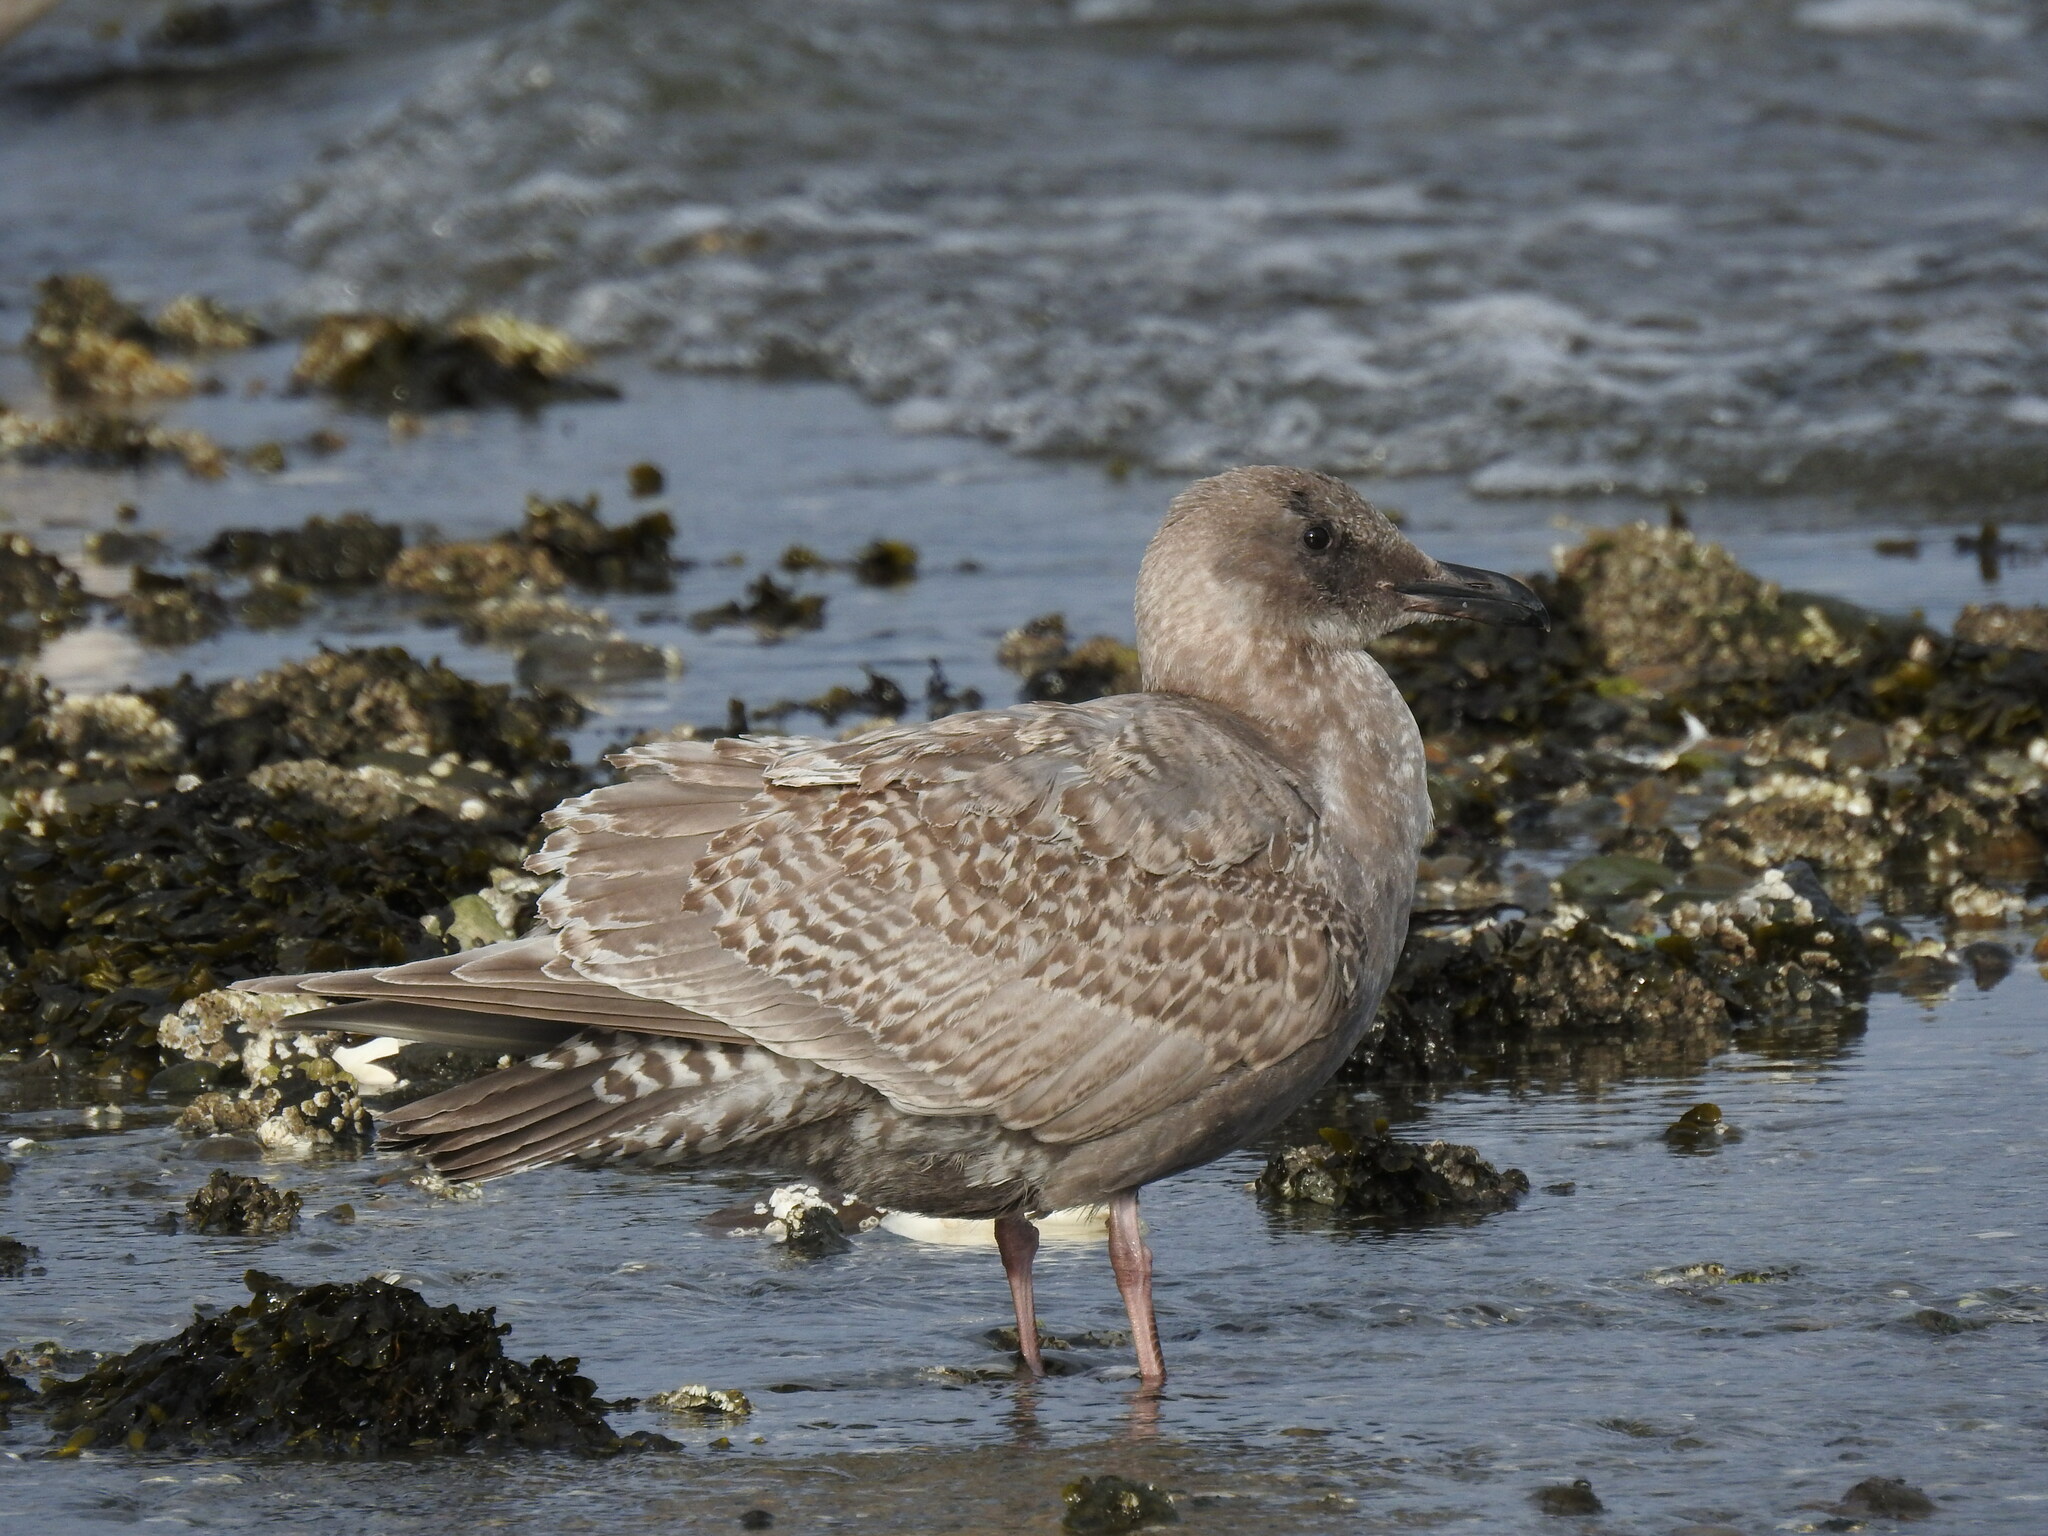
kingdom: Animalia
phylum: Chordata
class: Aves
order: Charadriiformes
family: Laridae
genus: Larus
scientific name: Larus
